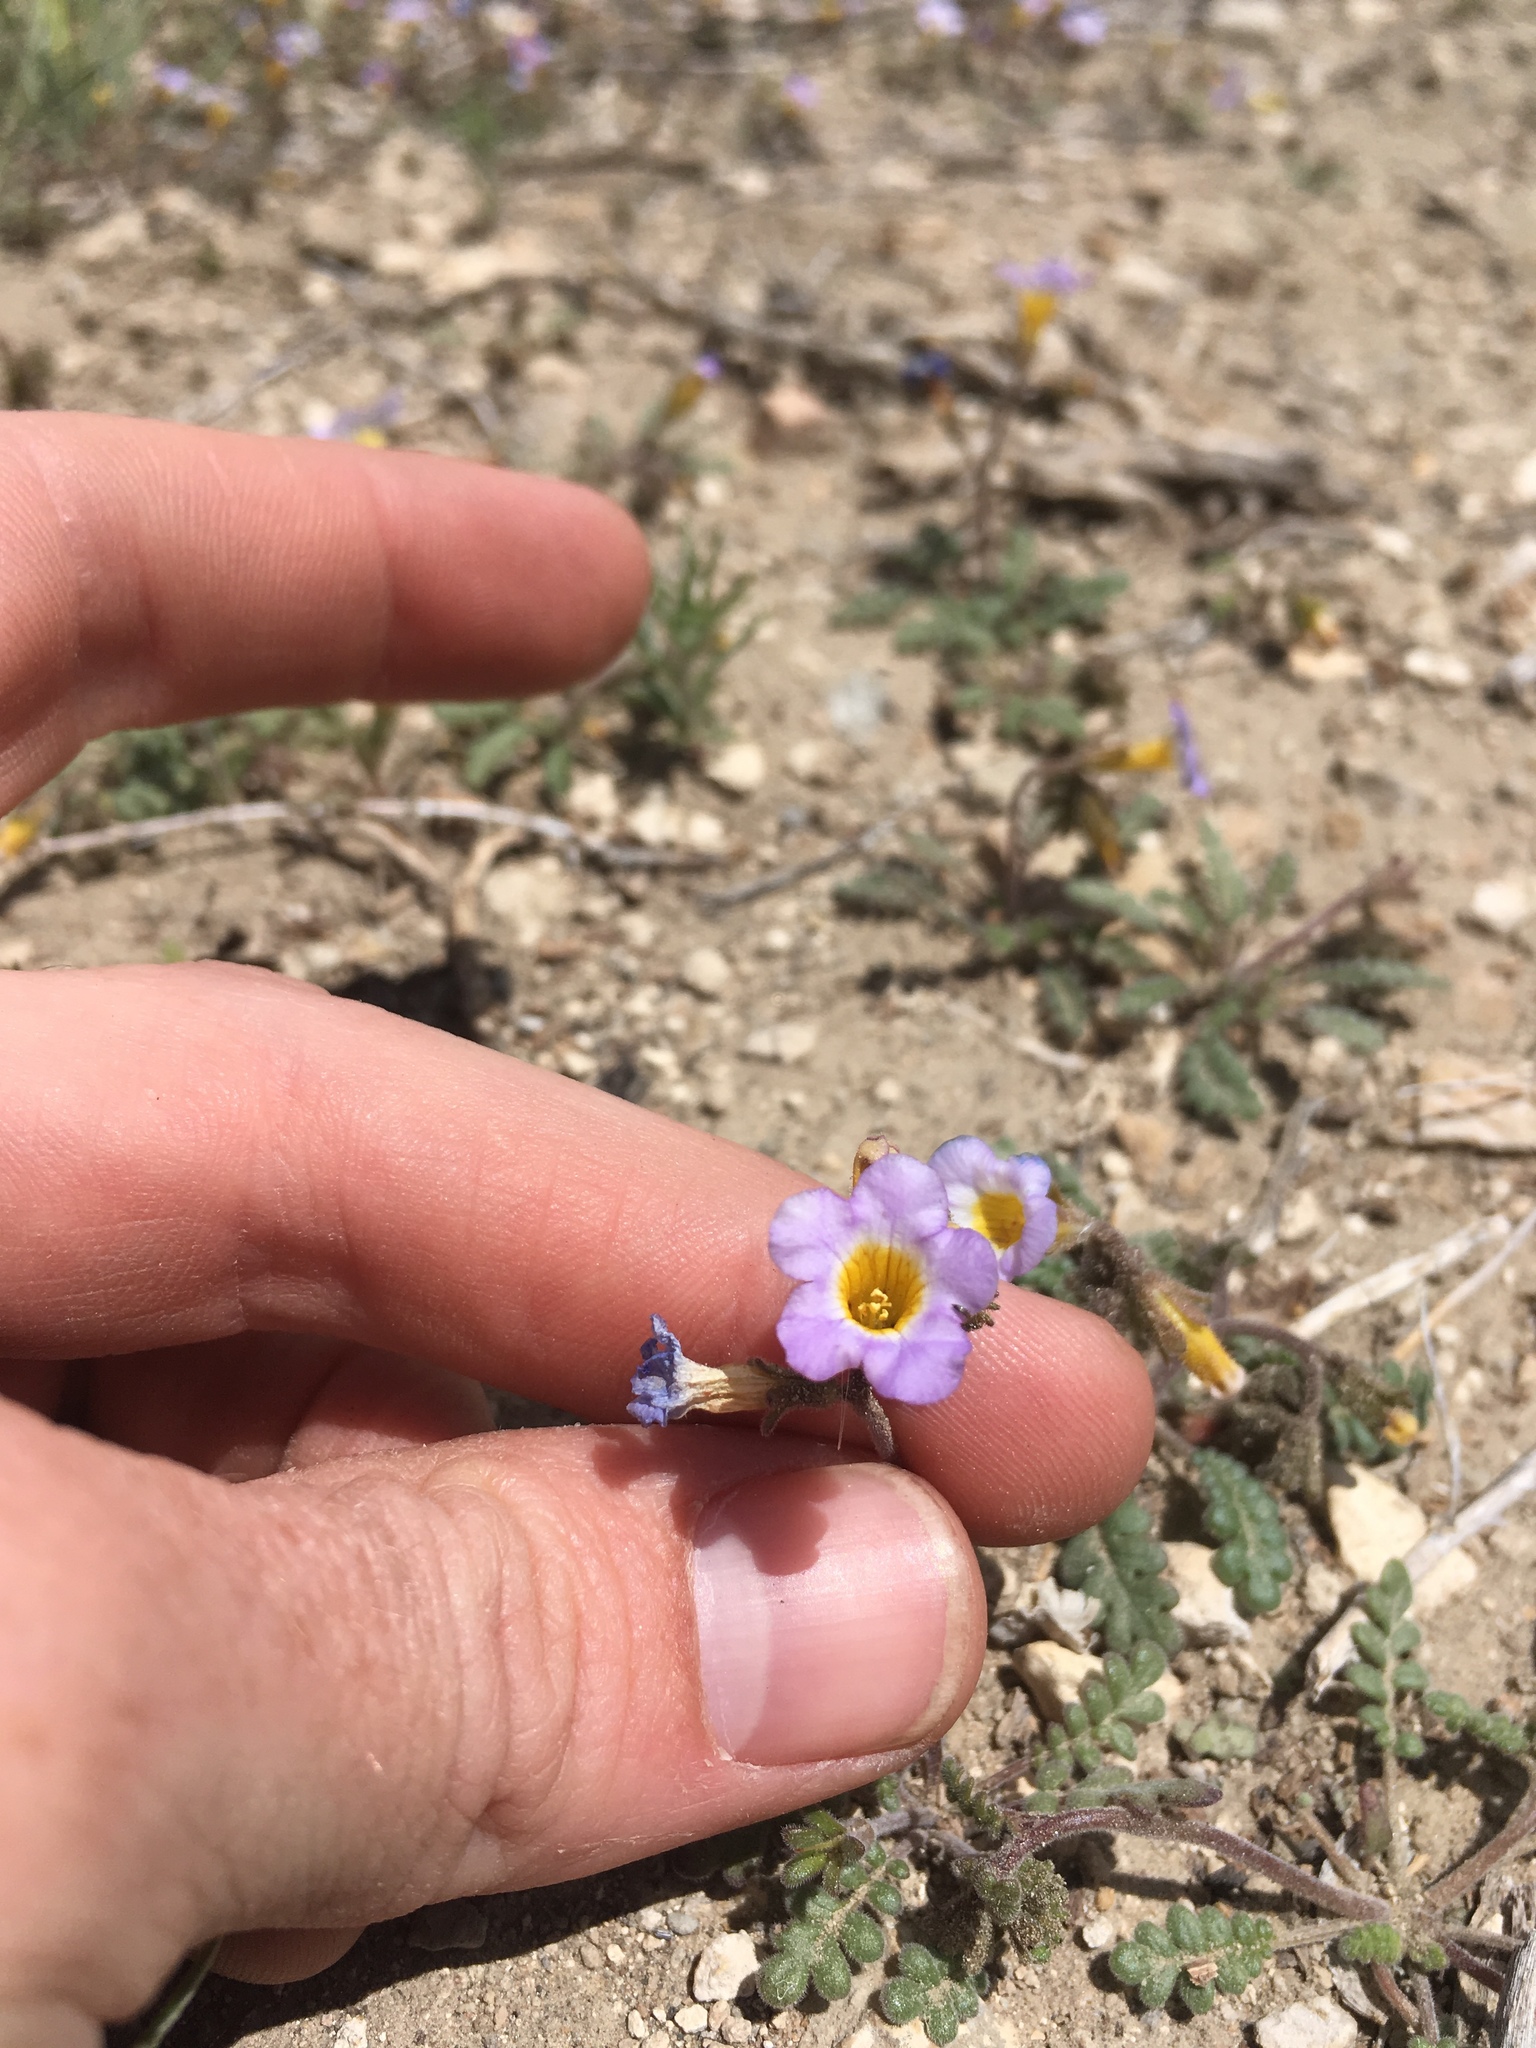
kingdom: Plantae
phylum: Tracheophyta
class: Magnoliopsida
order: Boraginales
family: Hydrophyllaceae
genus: Phacelia
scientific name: Phacelia fremontii
